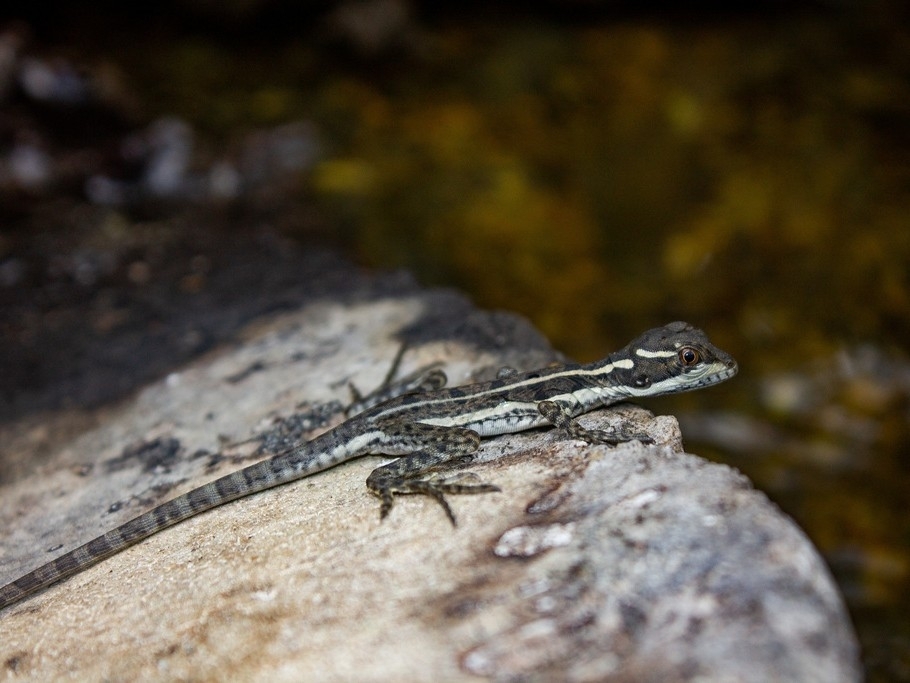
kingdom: Animalia
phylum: Chordata
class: Squamata
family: Corytophanidae
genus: Basiliscus
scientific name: Basiliscus basiliscus
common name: Common basilisk
